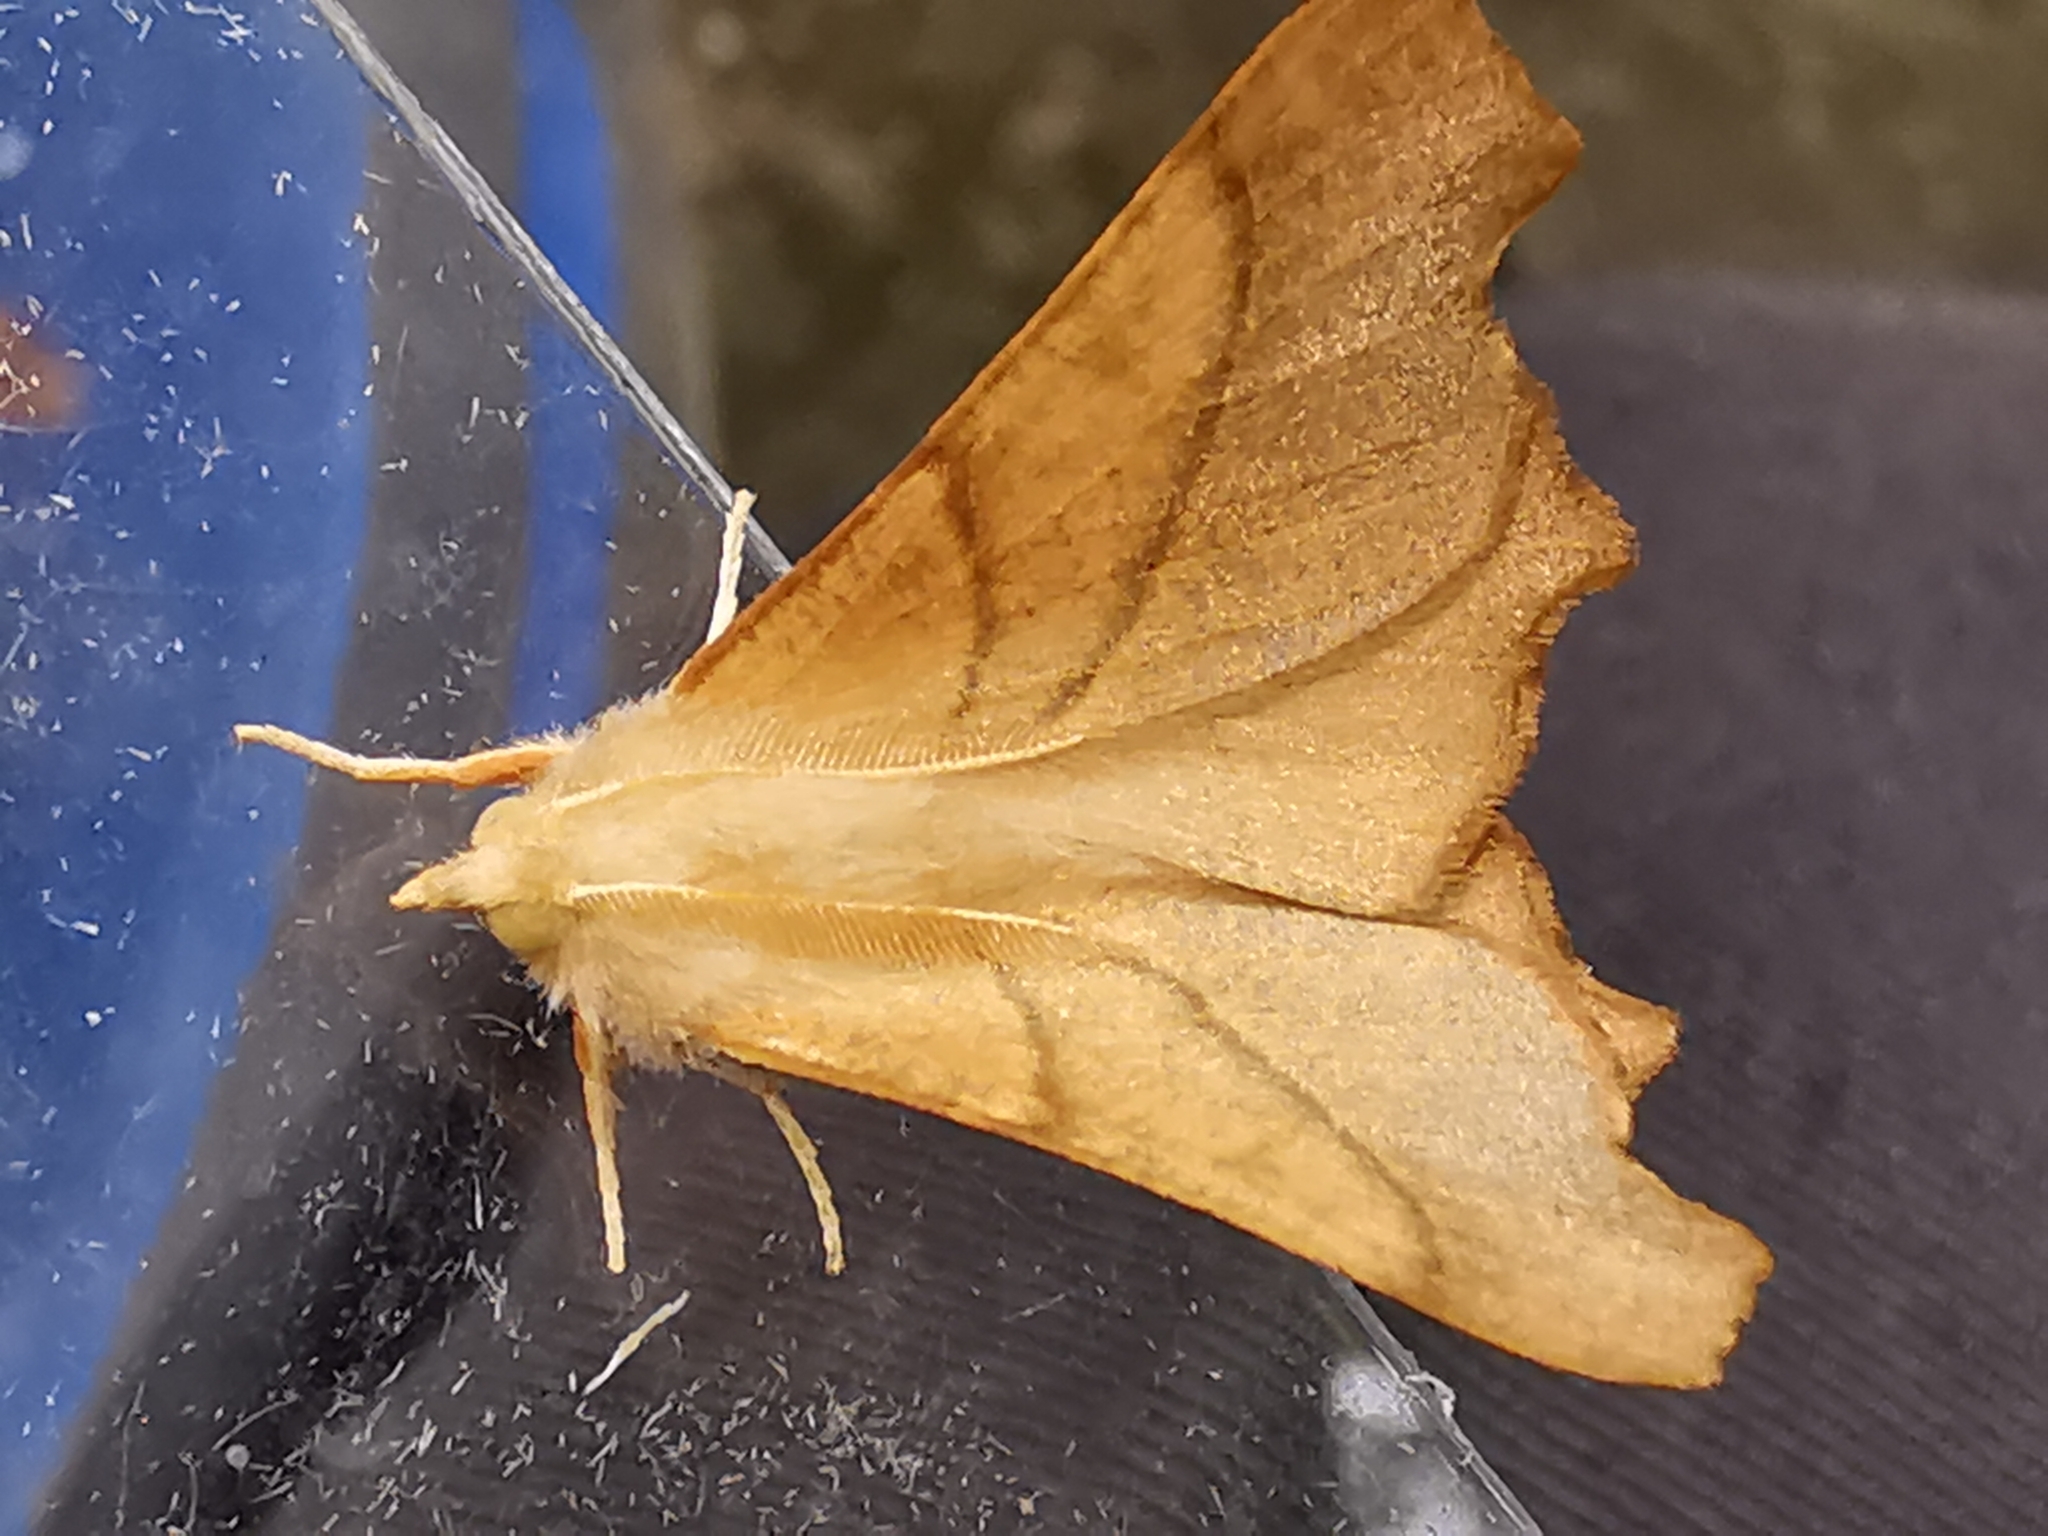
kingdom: Animalia
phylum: Arthropoda
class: Insecta
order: Lepidoptera
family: Geometridae
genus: Ennomos
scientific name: Ennomos fuscantaria
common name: Dusky thorn
